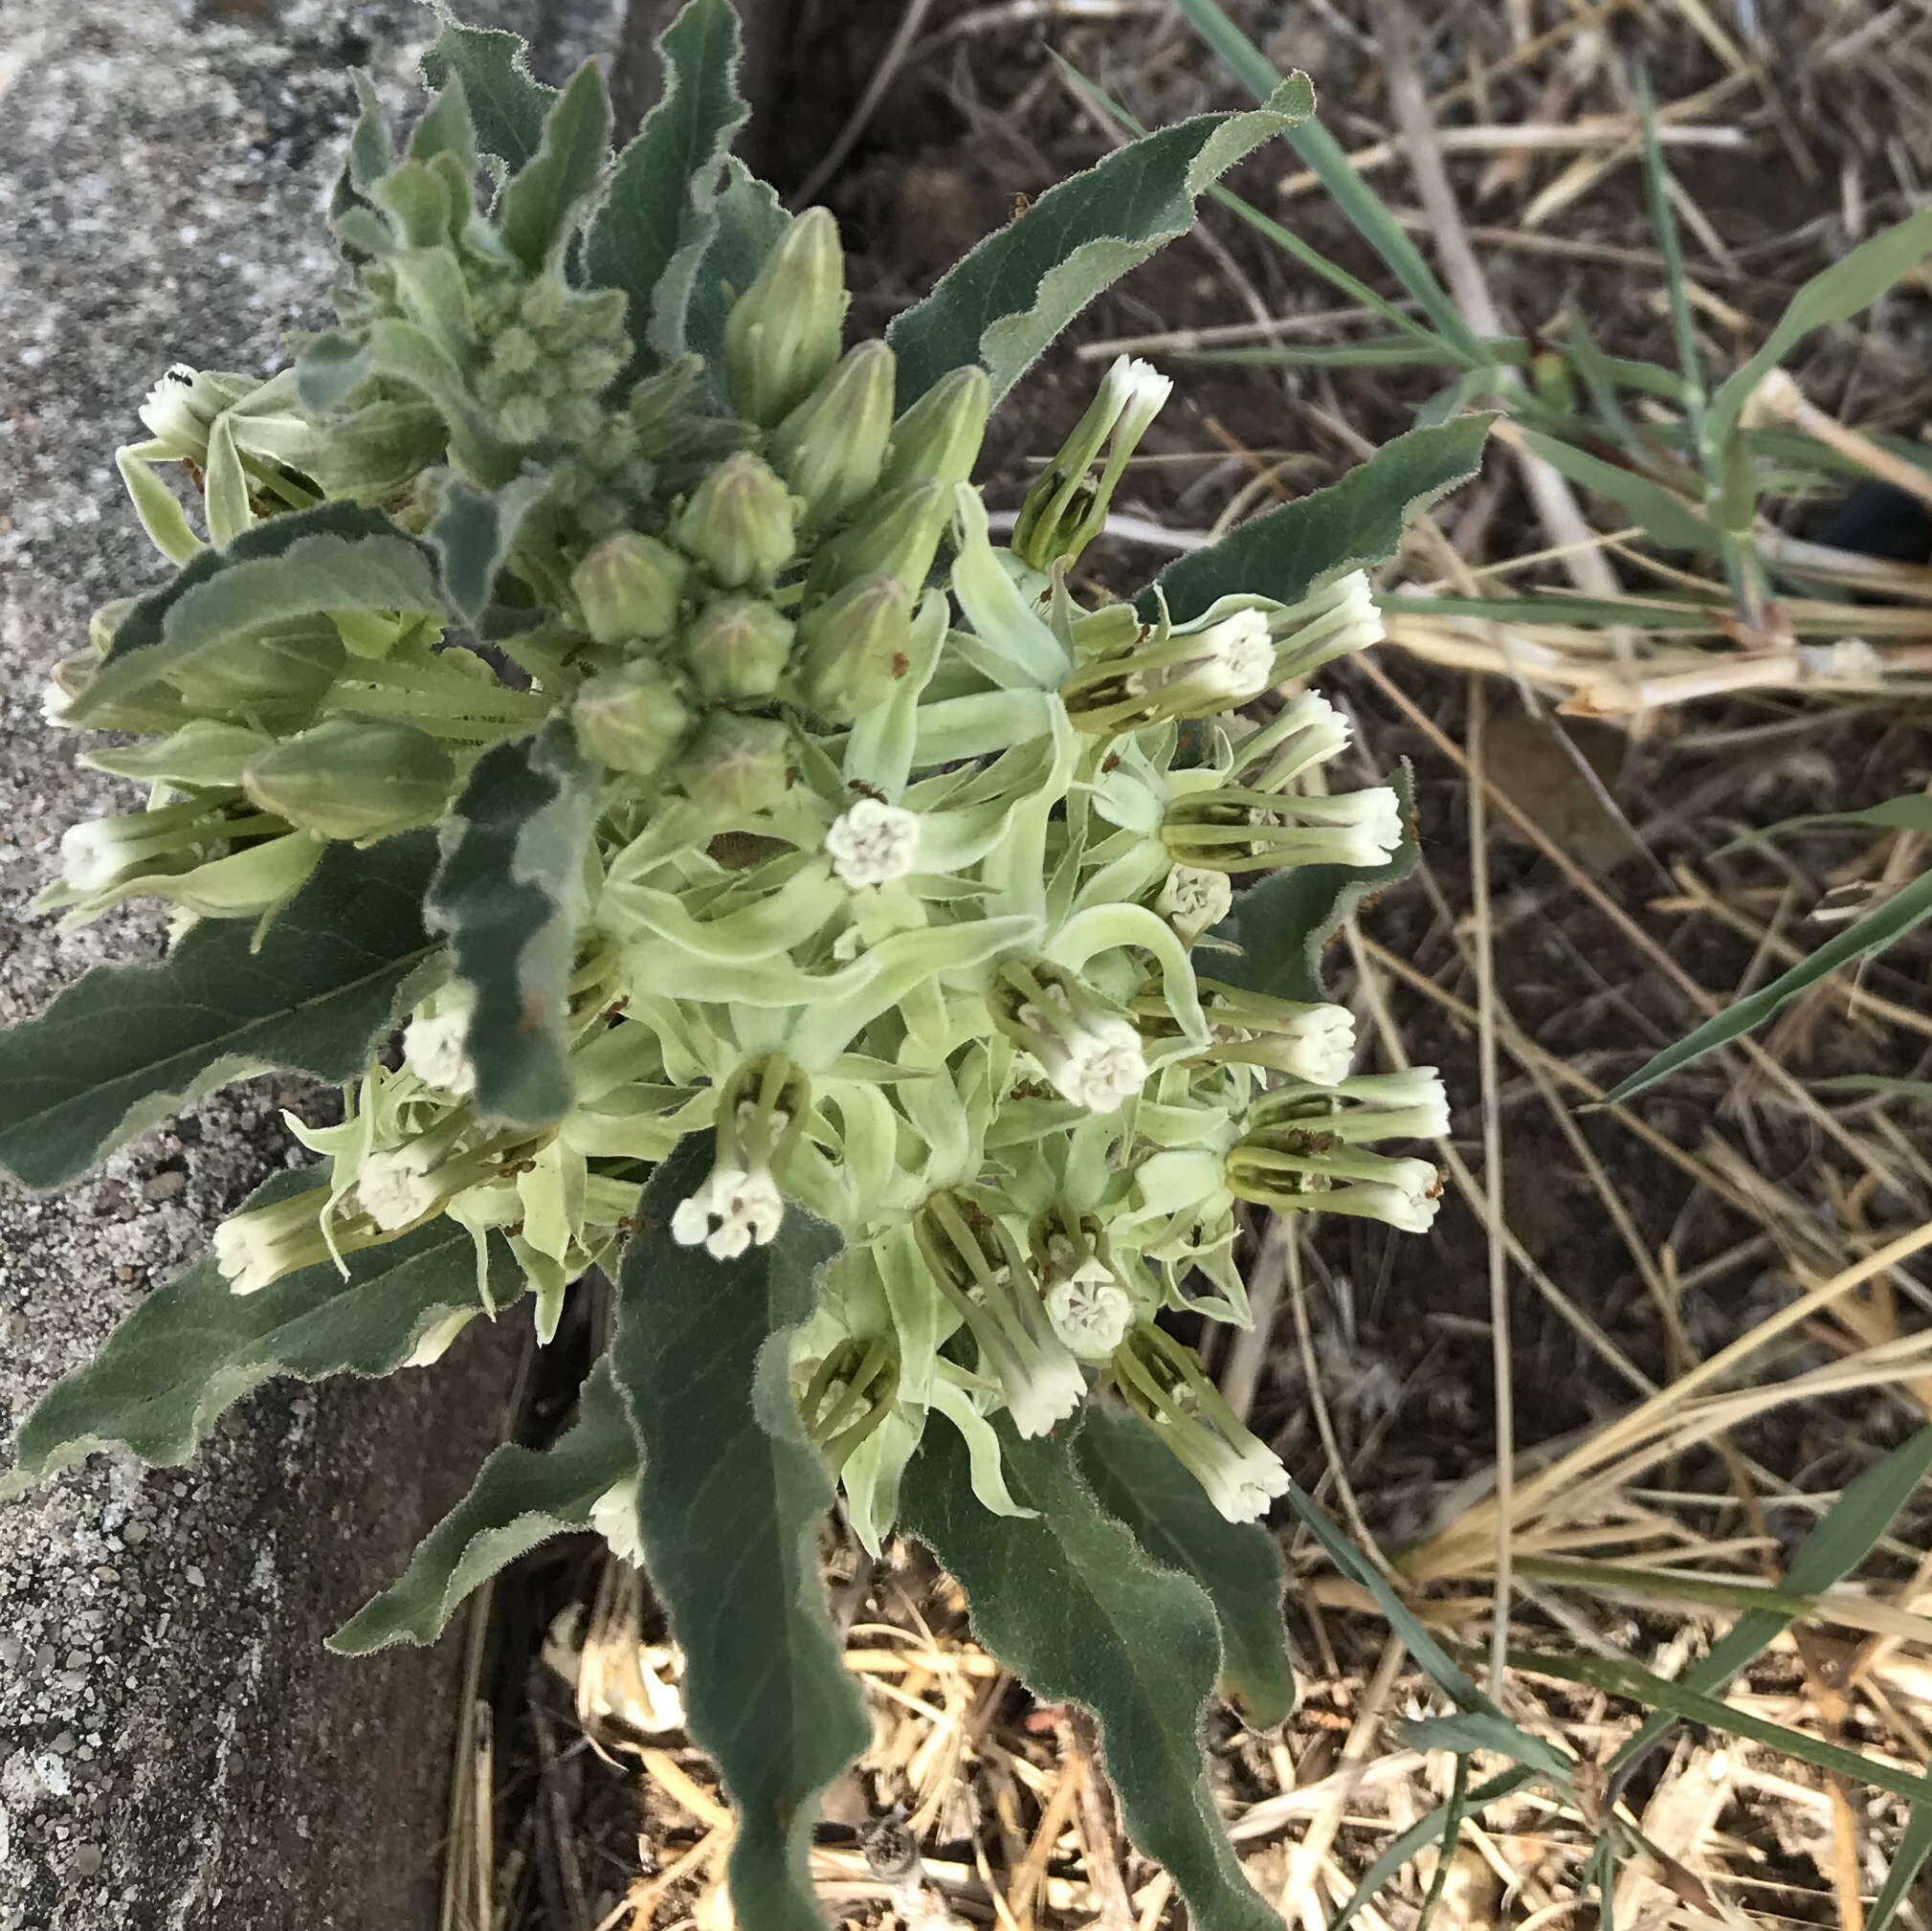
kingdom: Plantae
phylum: Tracheophyta
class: Magnoliopsida
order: Gentianales
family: Apocynaceae
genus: Asclepias
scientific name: Asclepias oenotheroides
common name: Zizotes milkweed
